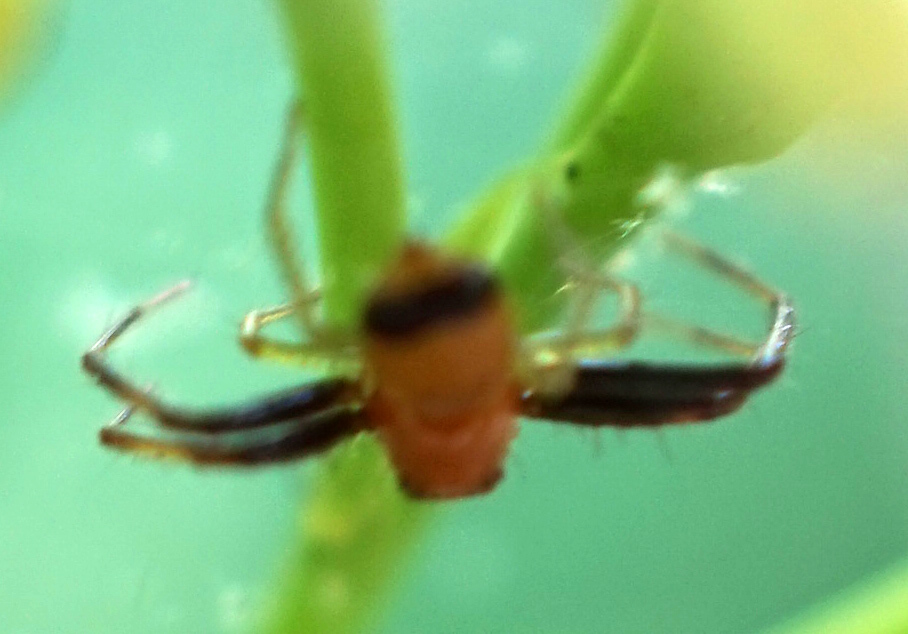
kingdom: Animalia
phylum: Arthropoda
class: Arachnida
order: Araneae
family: Thomisidae
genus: Synema
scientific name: Synema parvulum
